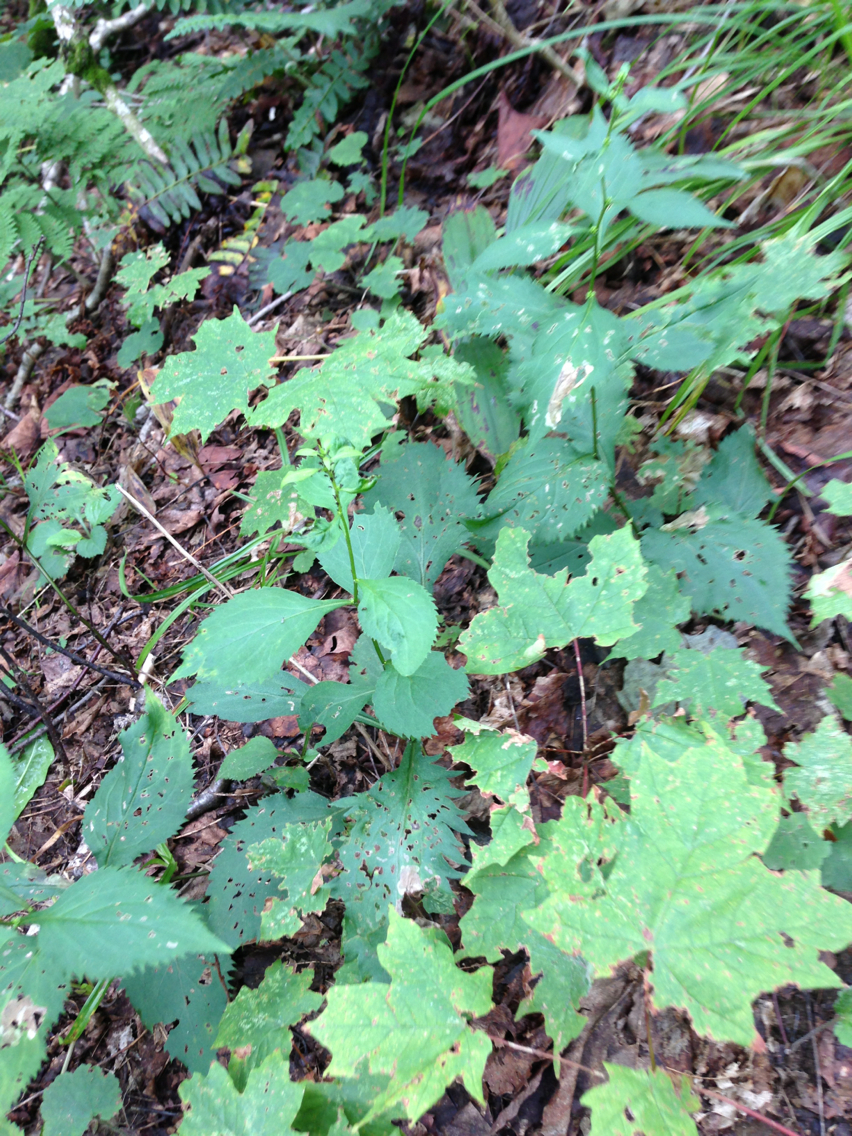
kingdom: Plantae
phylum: Tracheophyta
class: Magnoliopsida
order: Asterales
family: Asteraceae
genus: Solidago
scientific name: Solidago flexicaulis
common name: Zig-zag goldenrod
